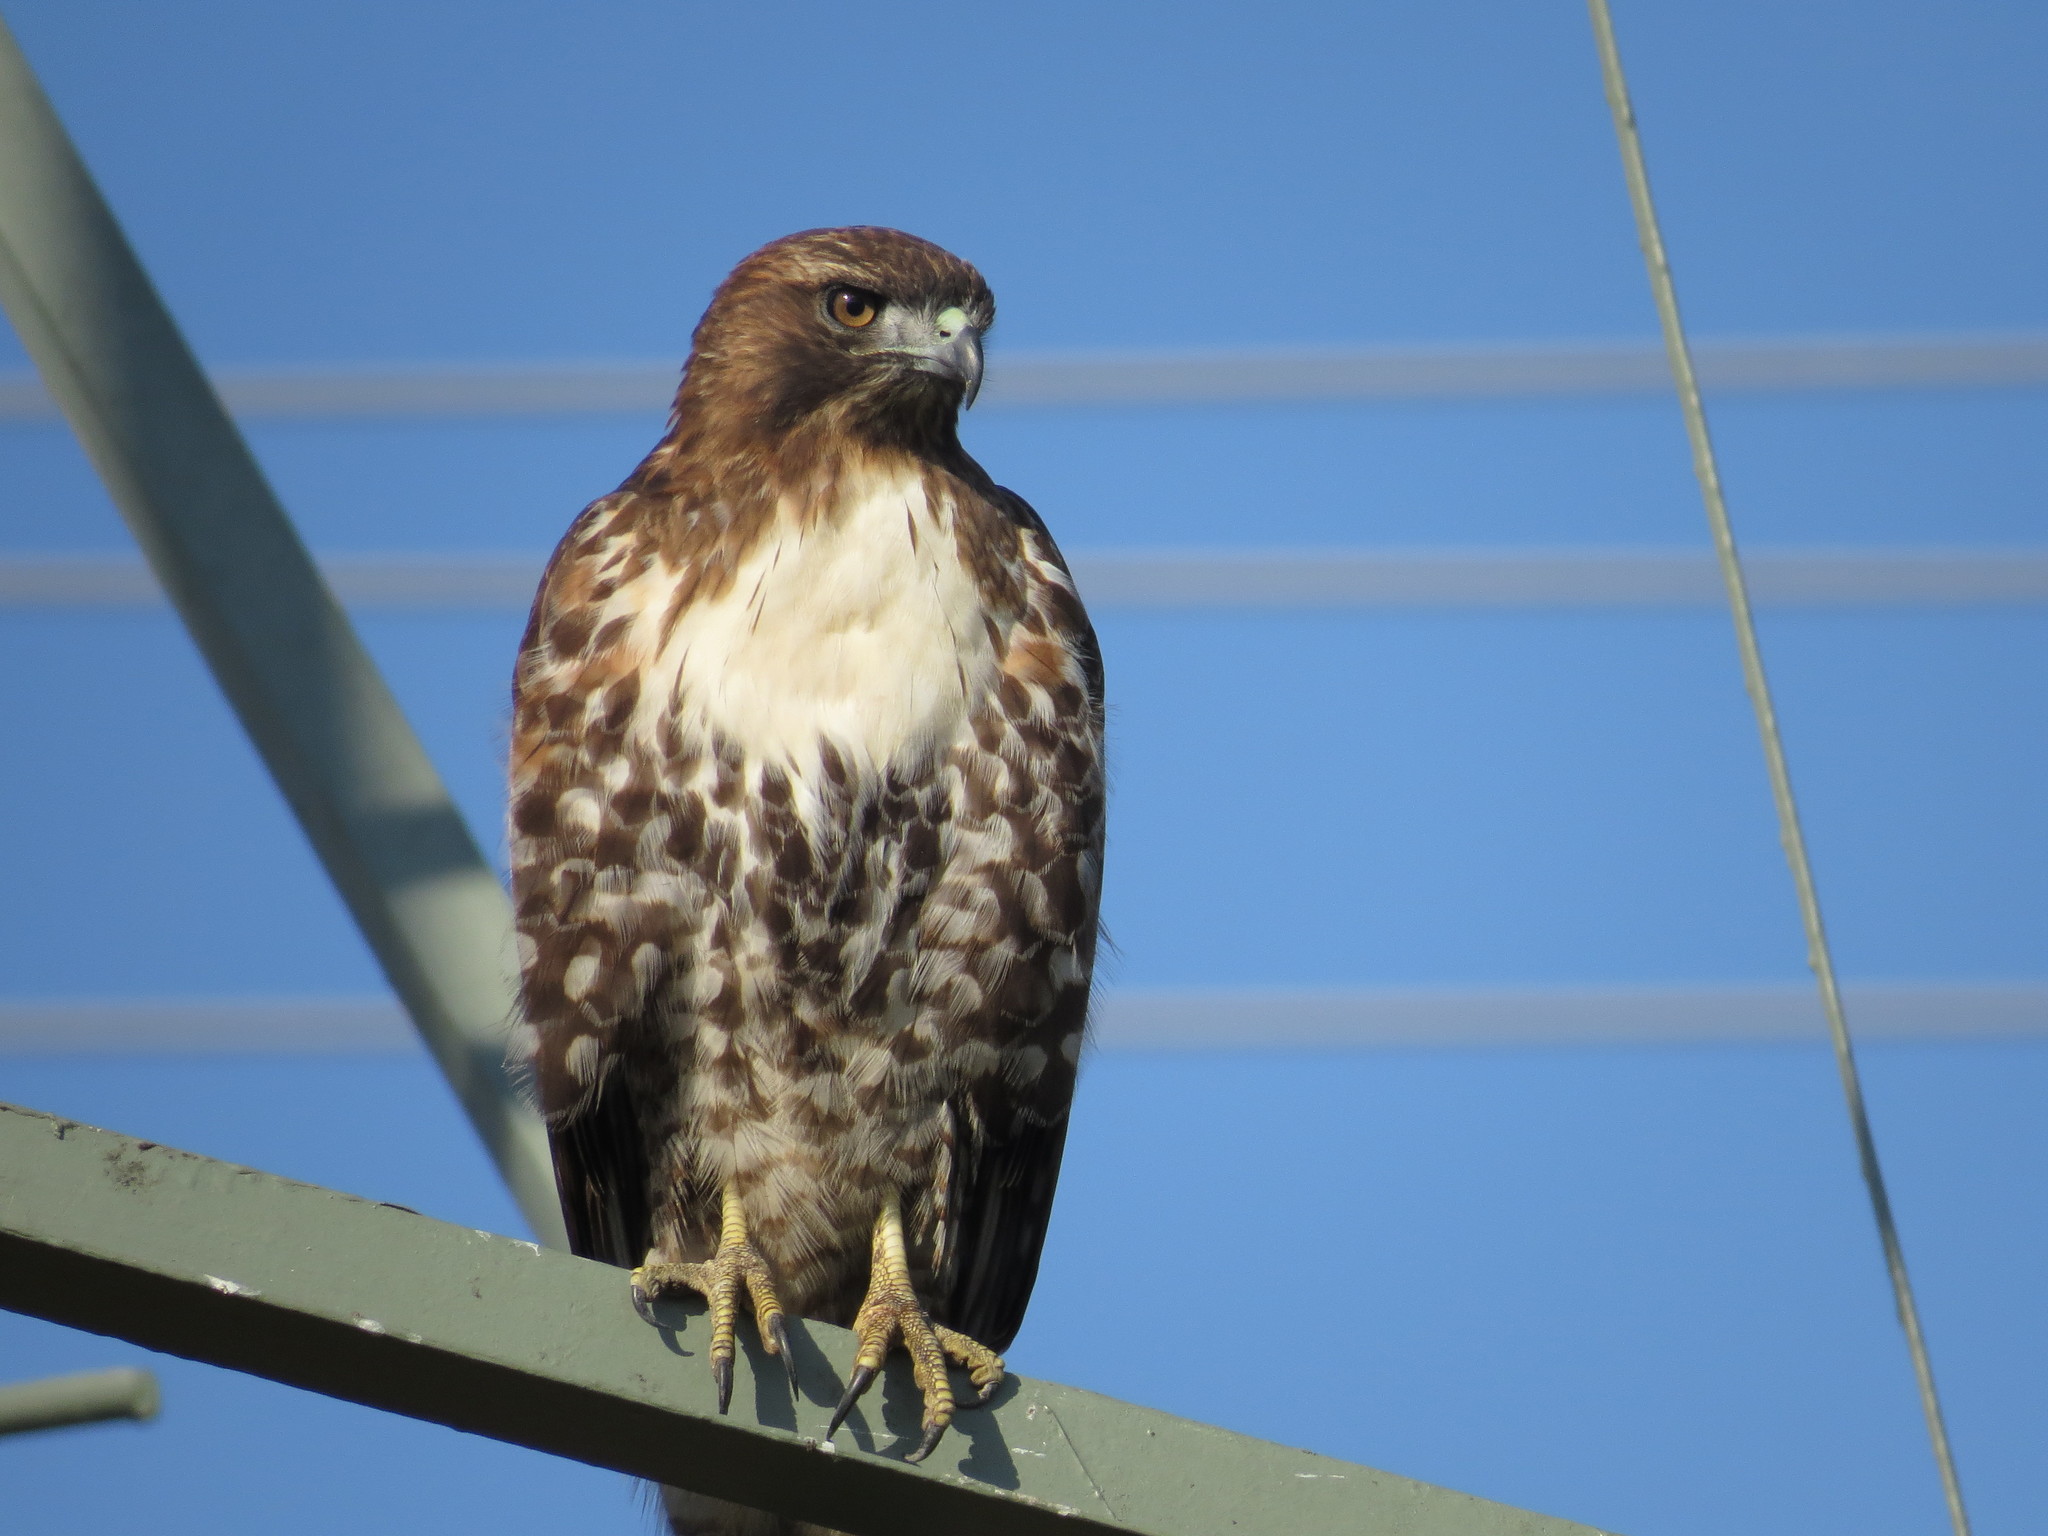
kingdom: Animalia
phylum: Chordata
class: Aves
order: Accipitriformes
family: Accipitridae
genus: Buteo
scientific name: Buteo jamaicensis
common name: Red-tailed hawk
